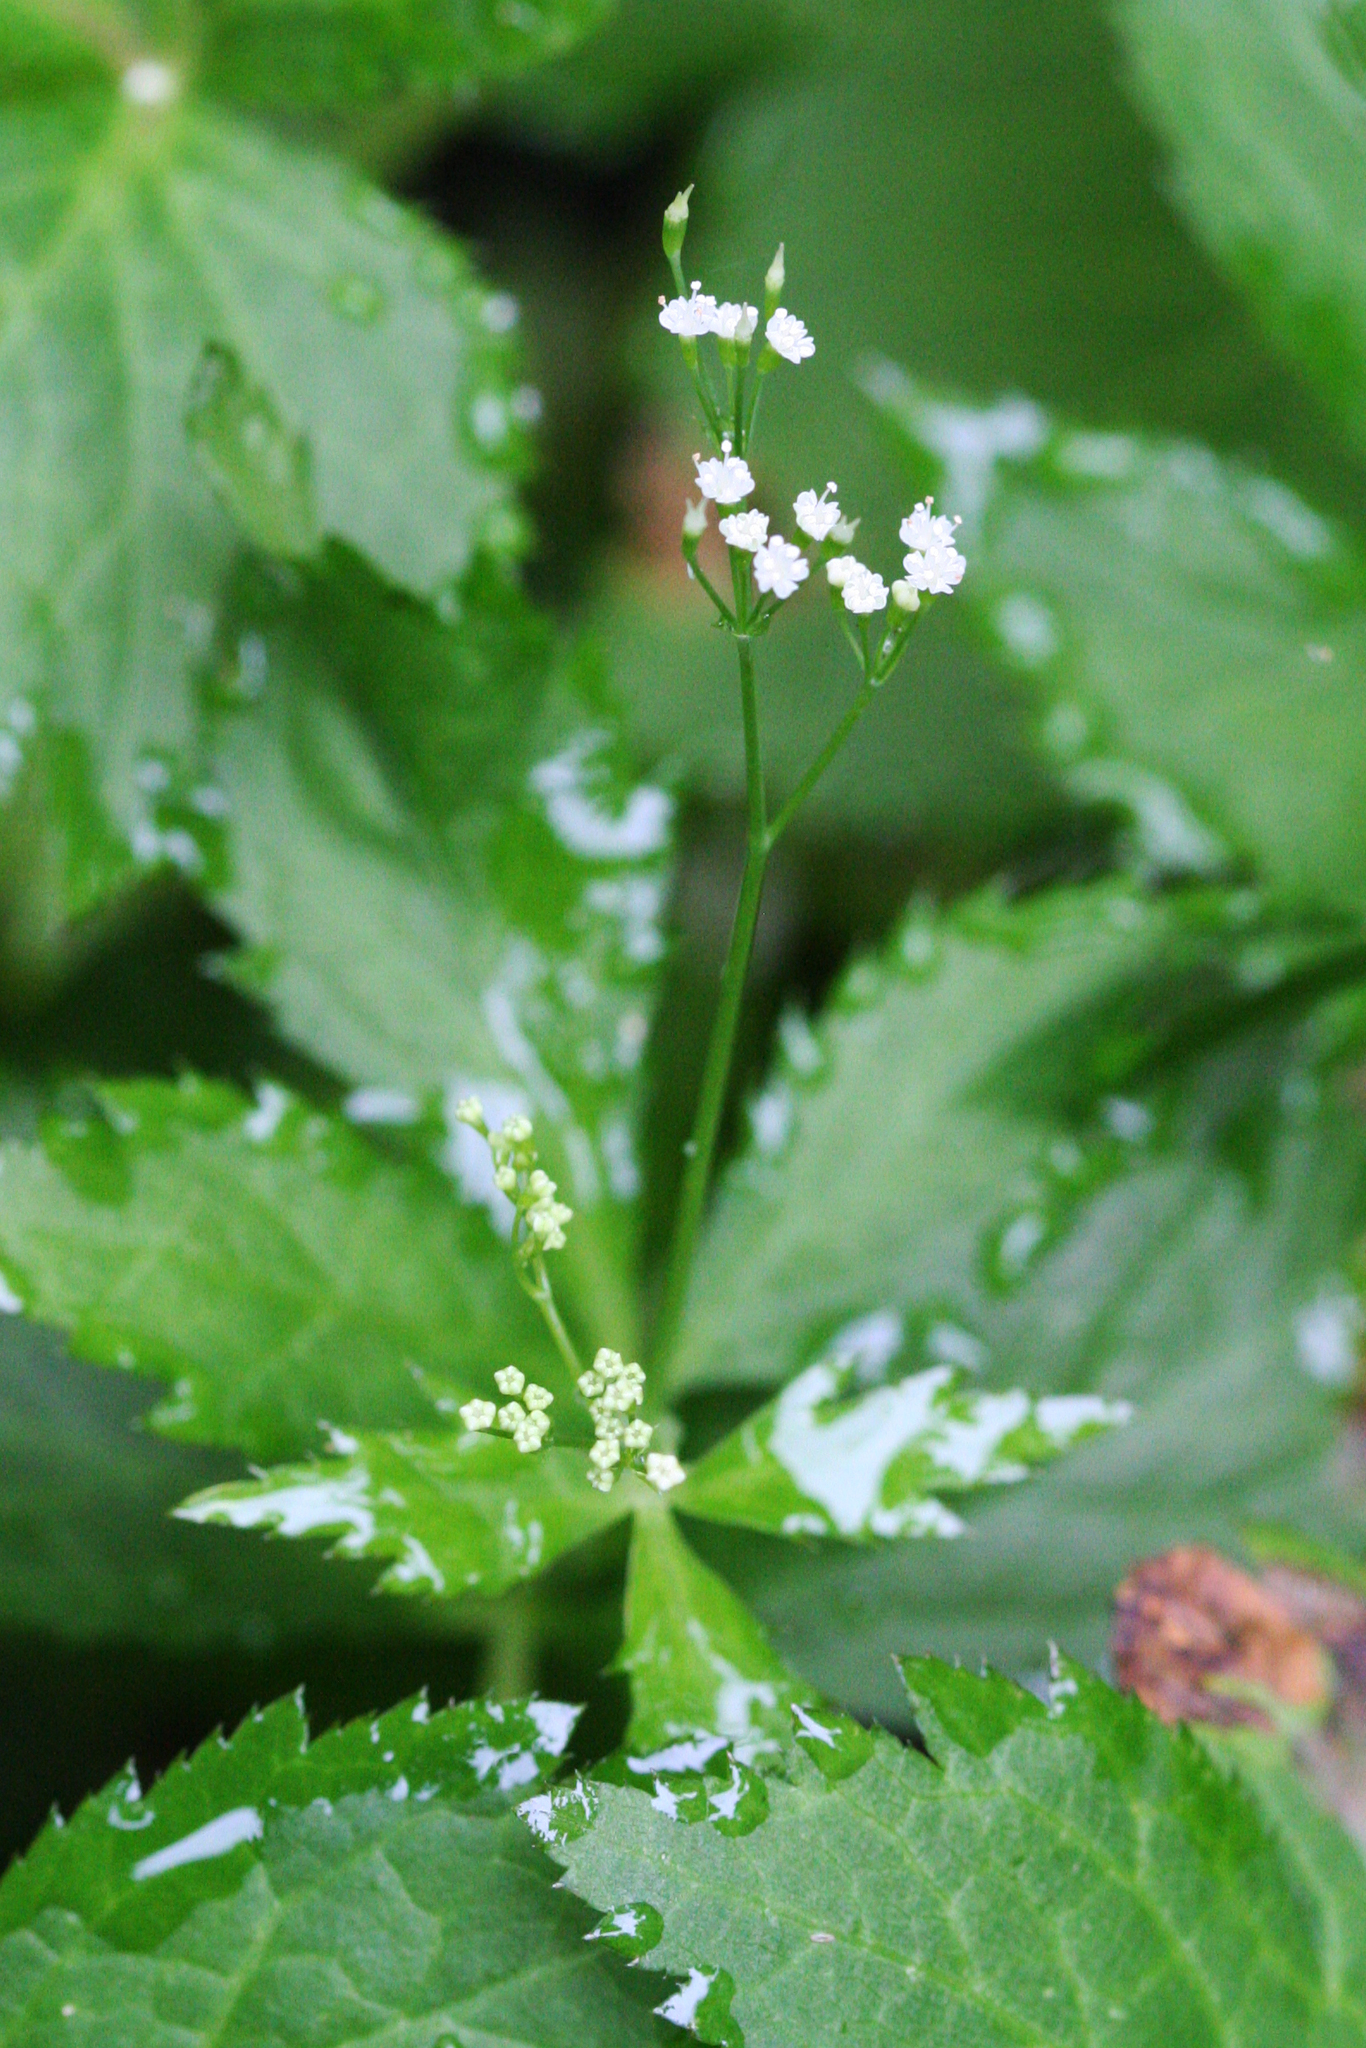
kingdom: Plantae
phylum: Tracheophyta
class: Magnoliopsida
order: Apiales
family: Apiaceae
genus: Cryptotaenia
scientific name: Cryptotaenia canadensis
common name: Honewort
